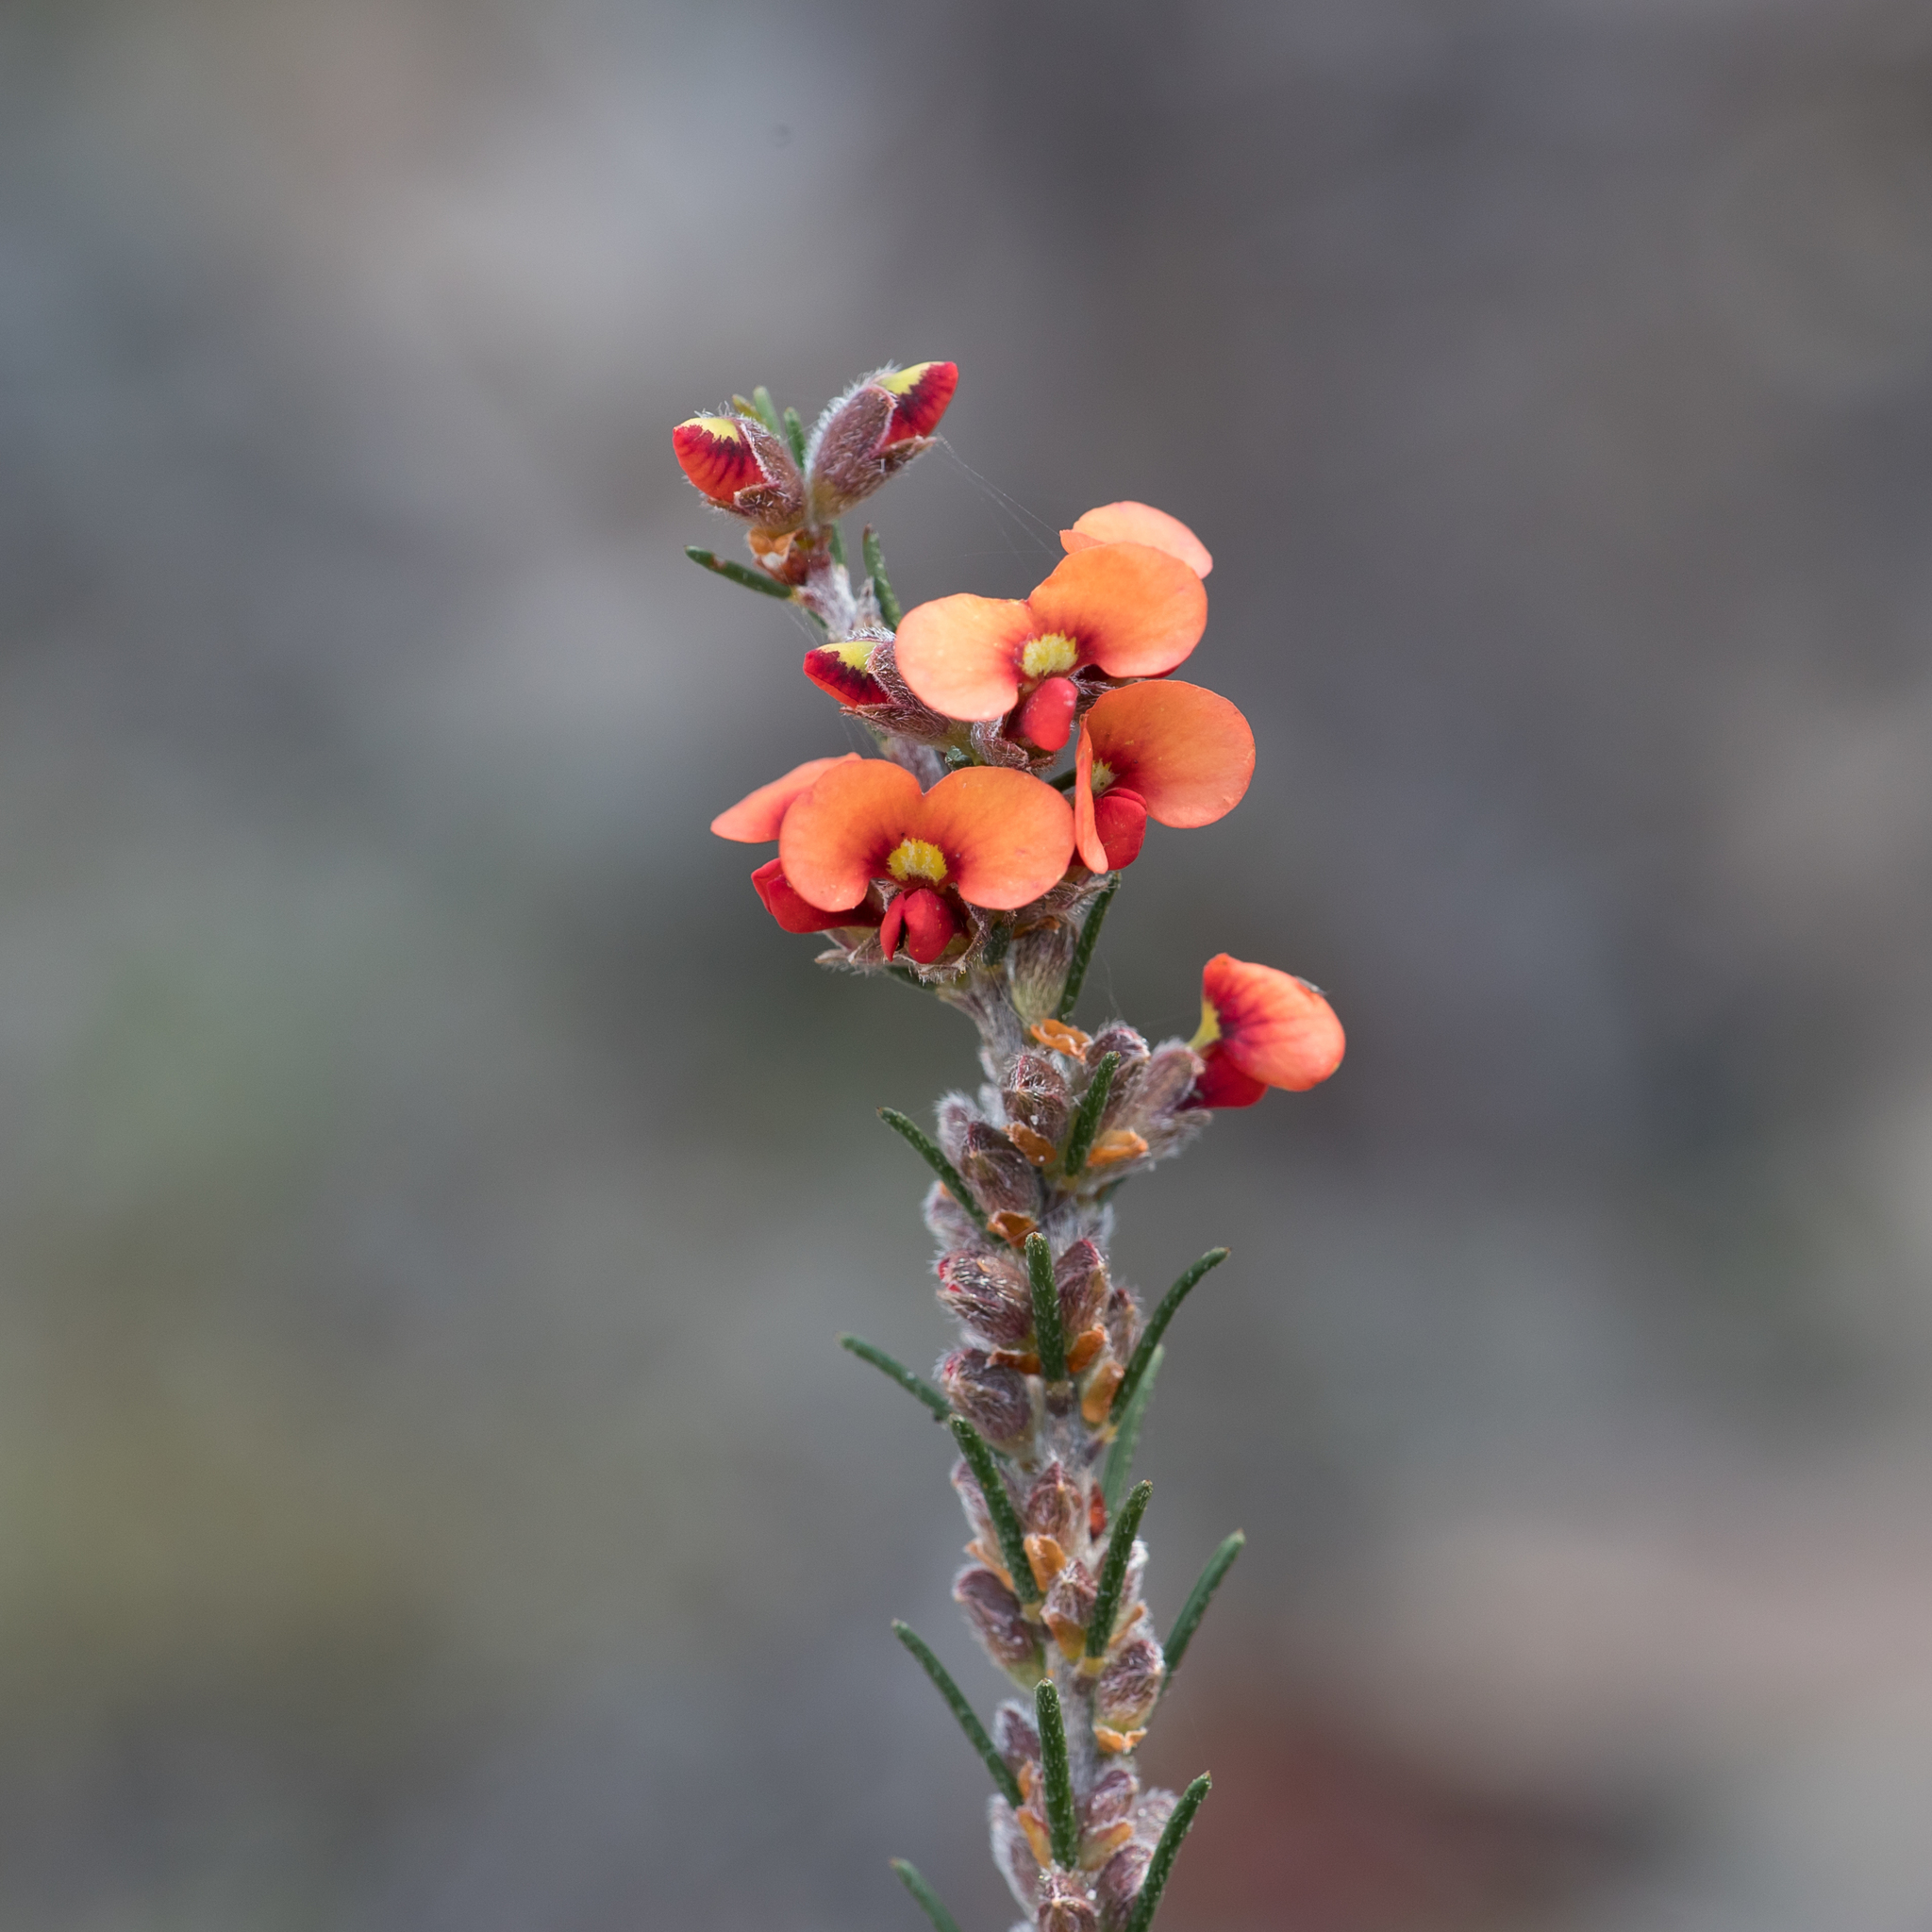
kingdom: Plantae
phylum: Tracheophyta
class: Magnoliopsida
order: Fabales
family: Fabaceae
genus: Dillwynia
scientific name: Dillwynia sericea
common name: Showy parrot-pea
